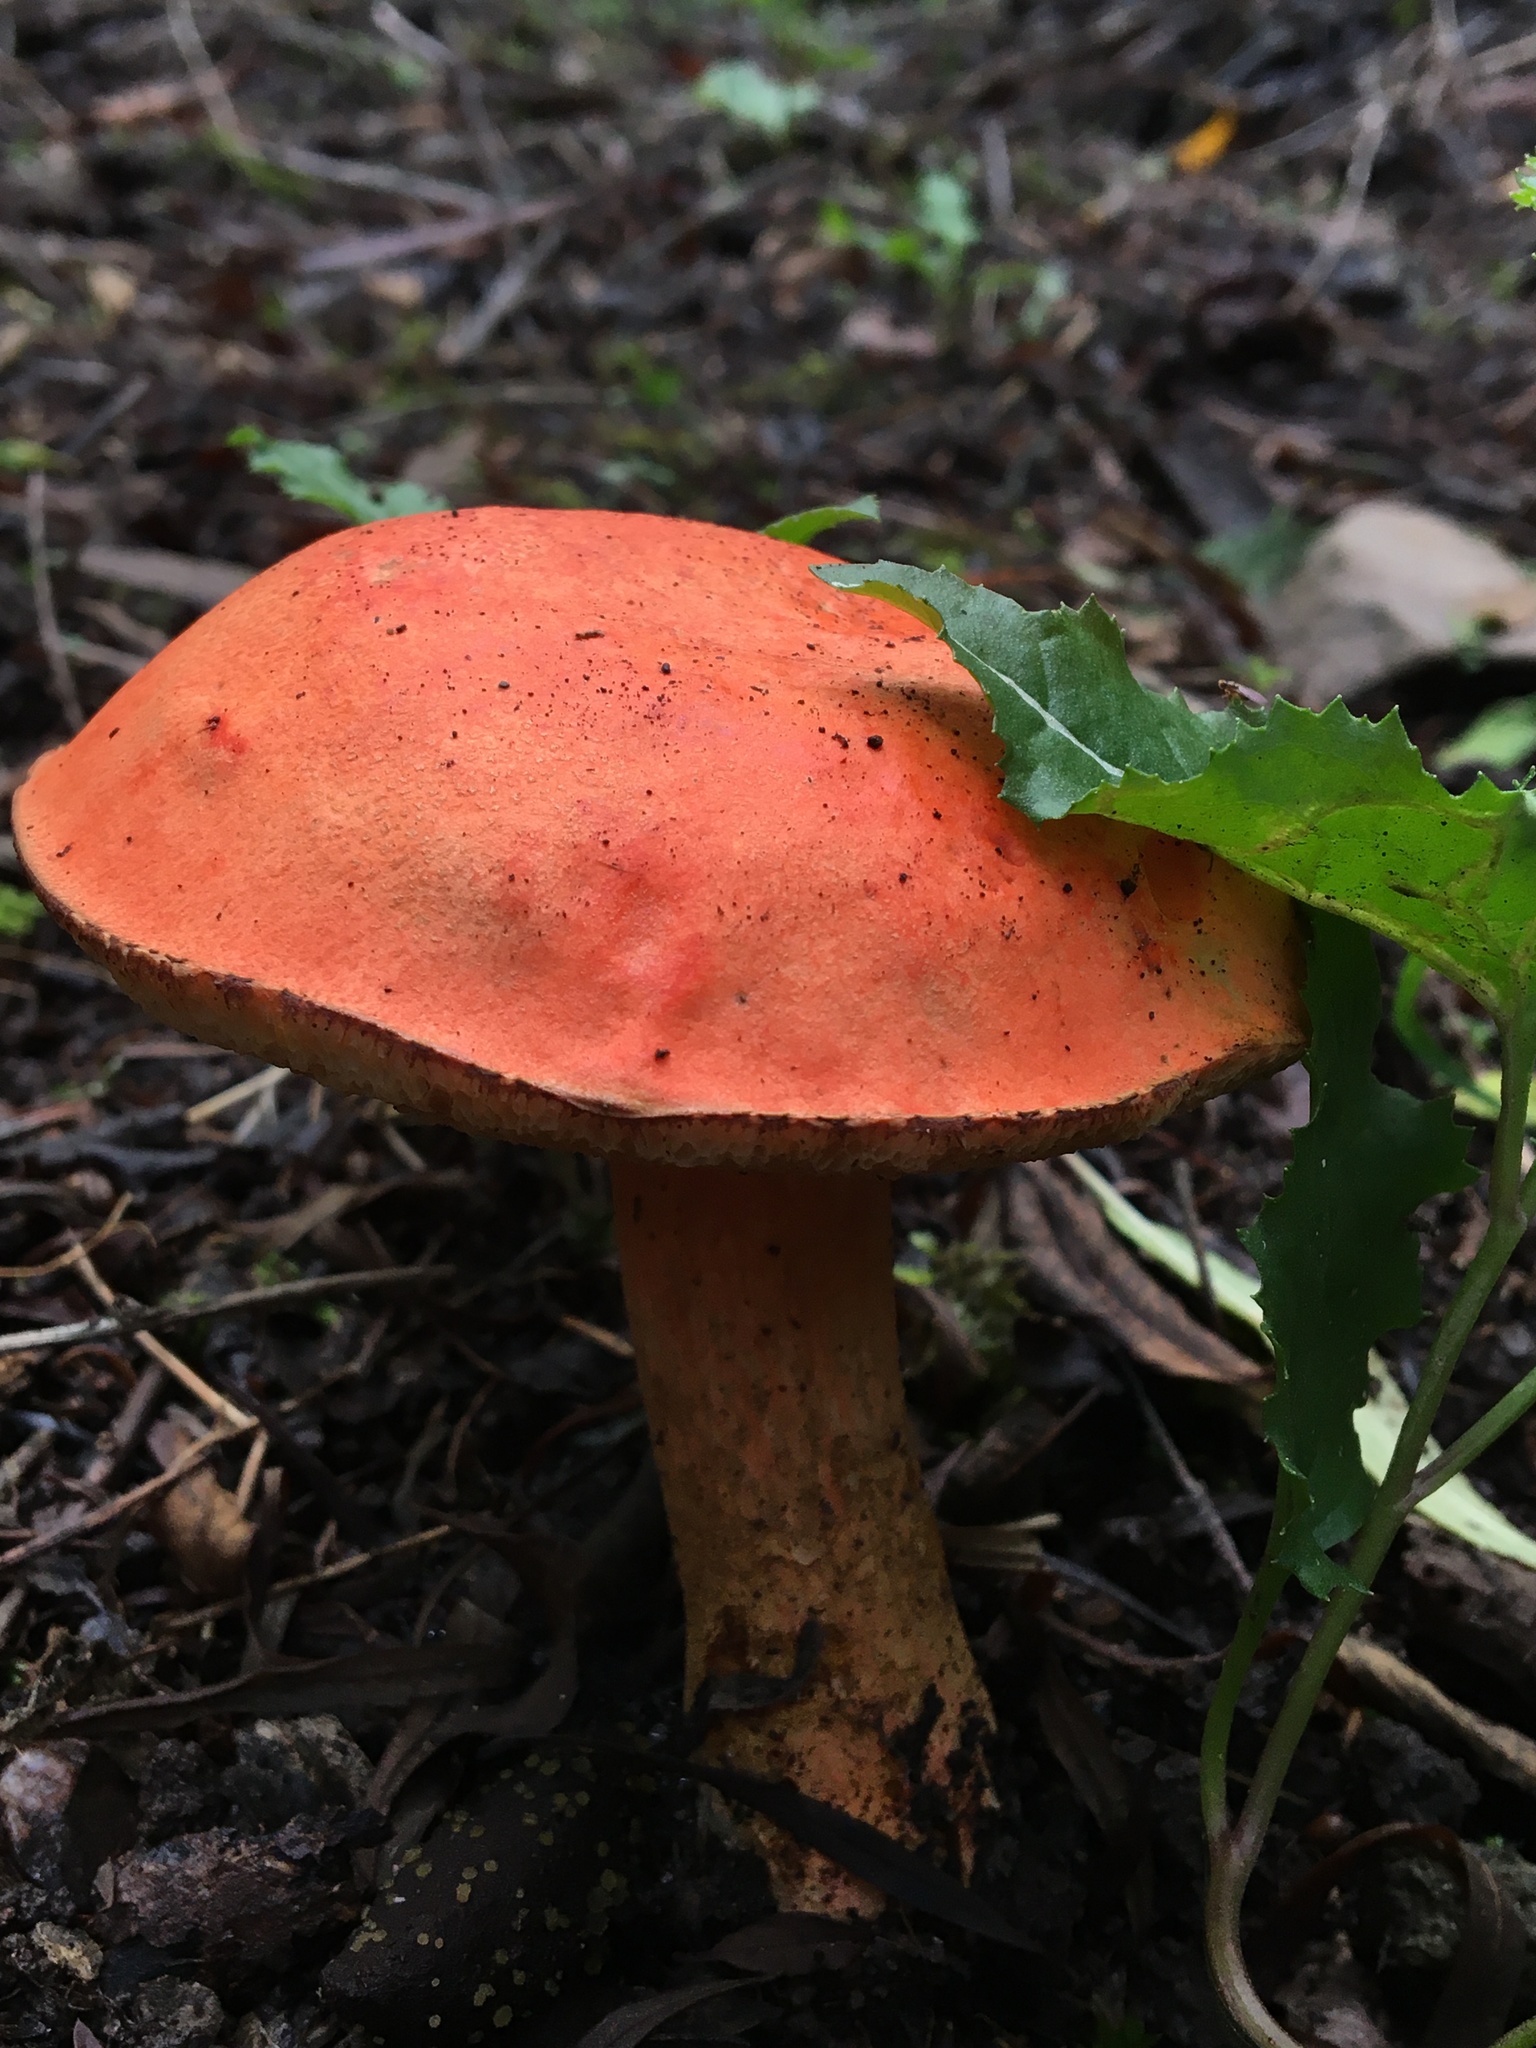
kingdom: Fungi
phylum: Basidiomycota
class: Agaricomycetes
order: Boletales
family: Boletaceae
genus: Tylopilus
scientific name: Tylopilus balloui
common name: Burnt-orange bolete
